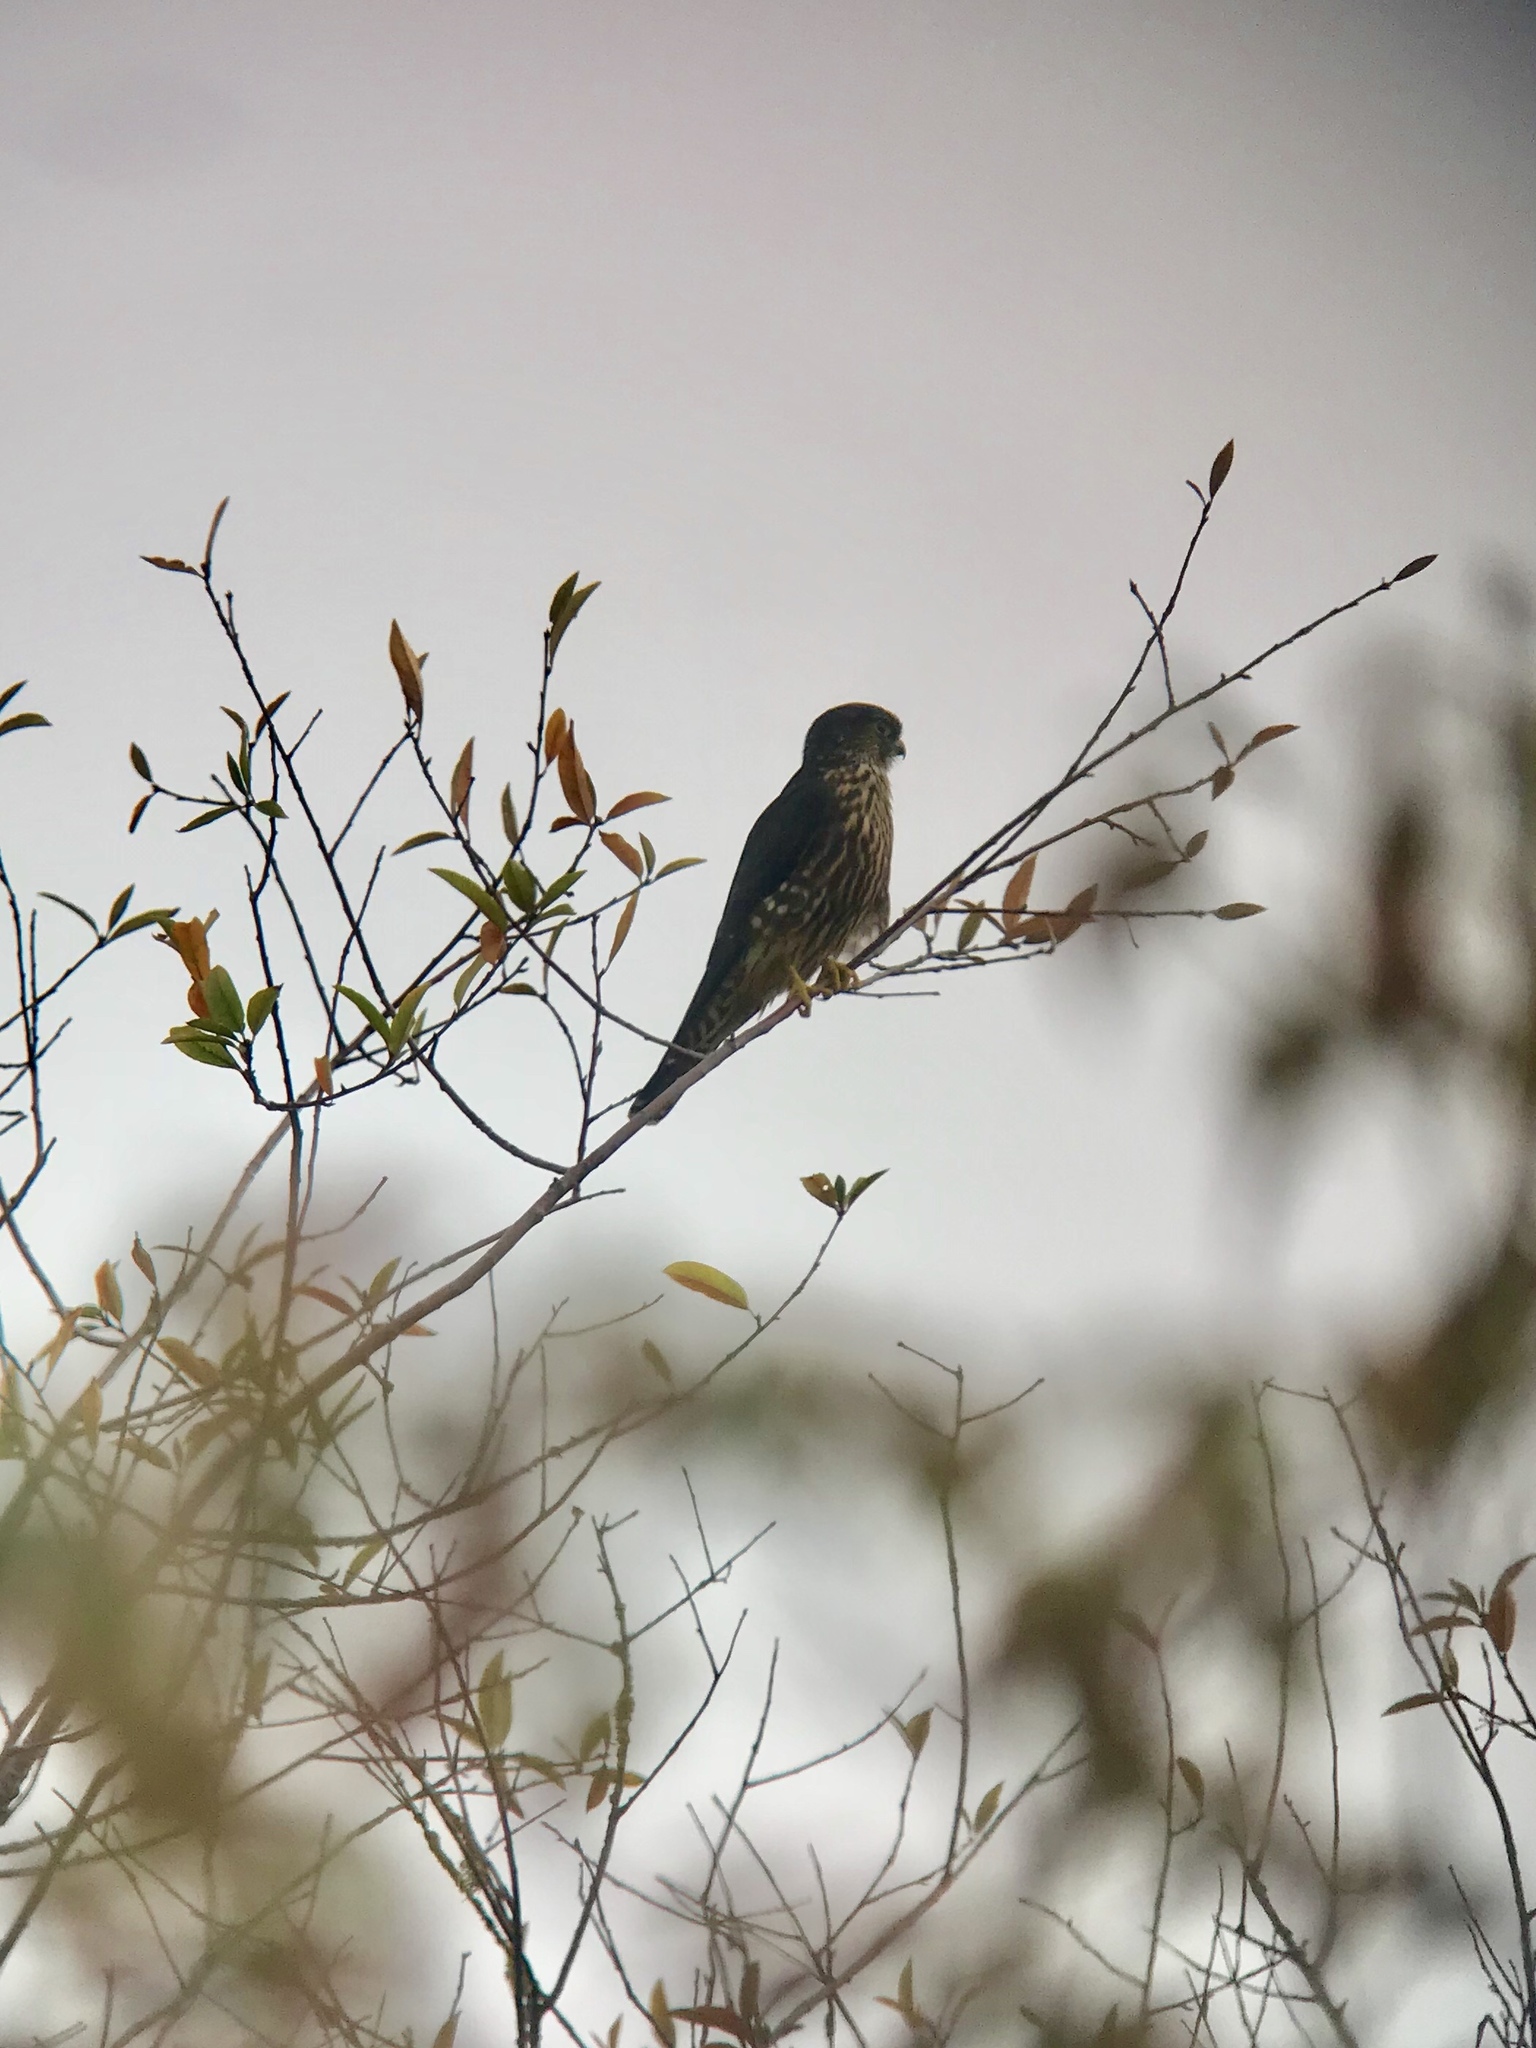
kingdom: Animalia
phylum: Chordata
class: Aves
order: Falconiformes
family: Falconidae
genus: Falco
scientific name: Falco columbarius
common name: Merlin
